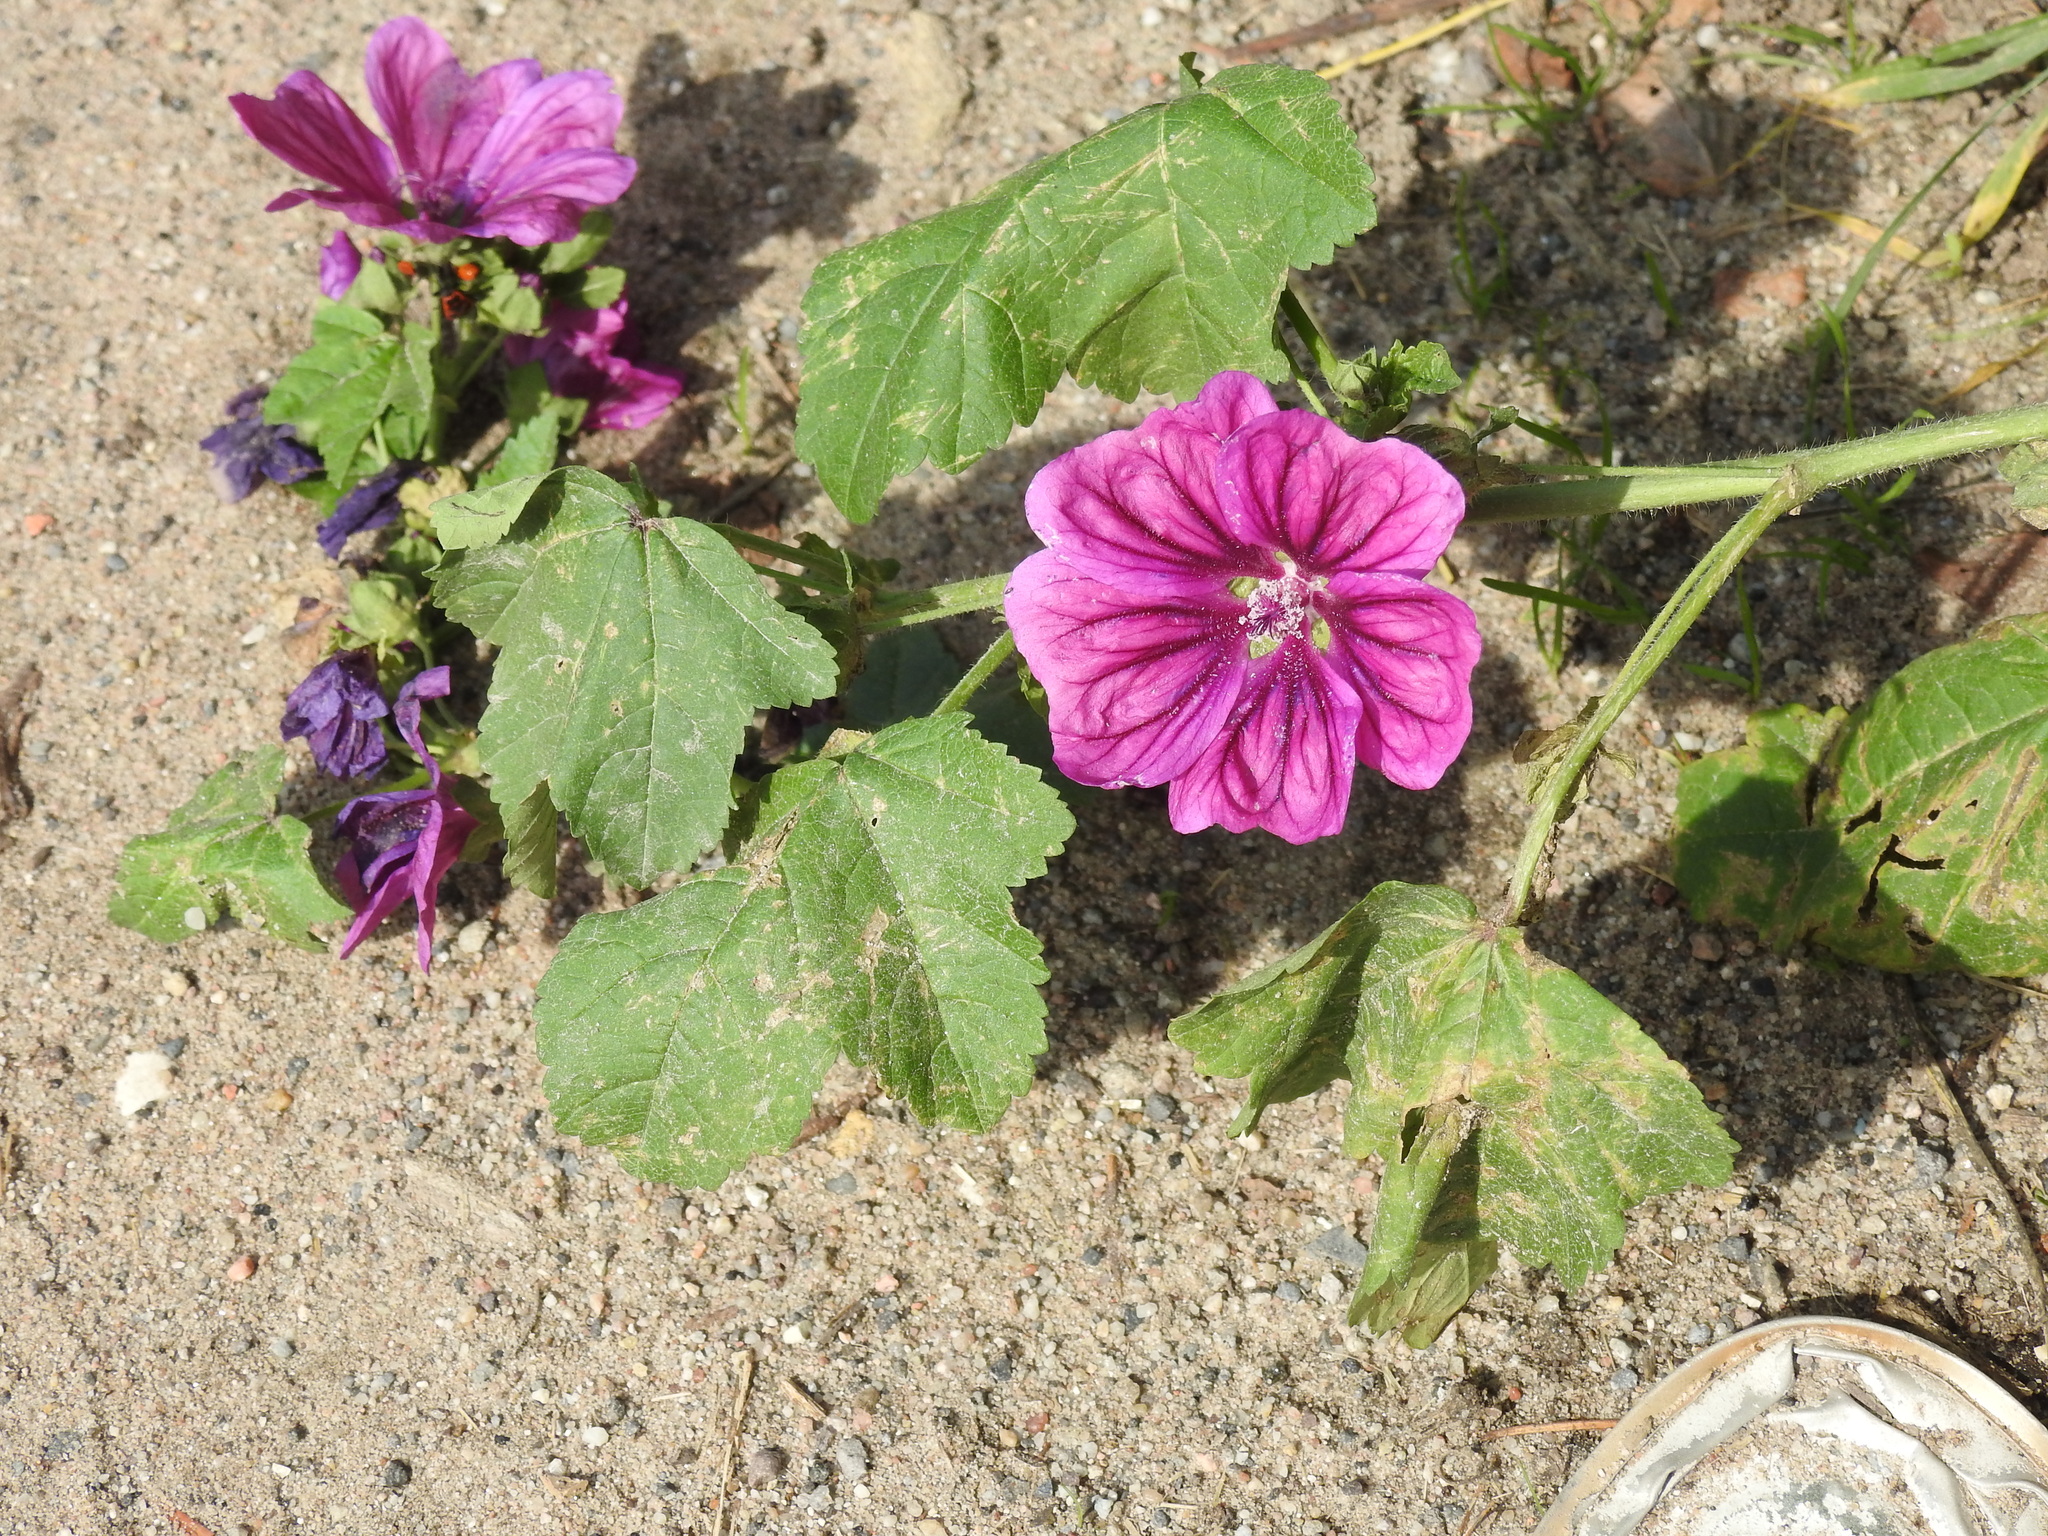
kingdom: Plantae
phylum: Tracheophyta
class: Magnoliopsida
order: Malvales
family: Malvaceae
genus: Malva
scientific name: Malva sylvestris
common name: Common mallow
